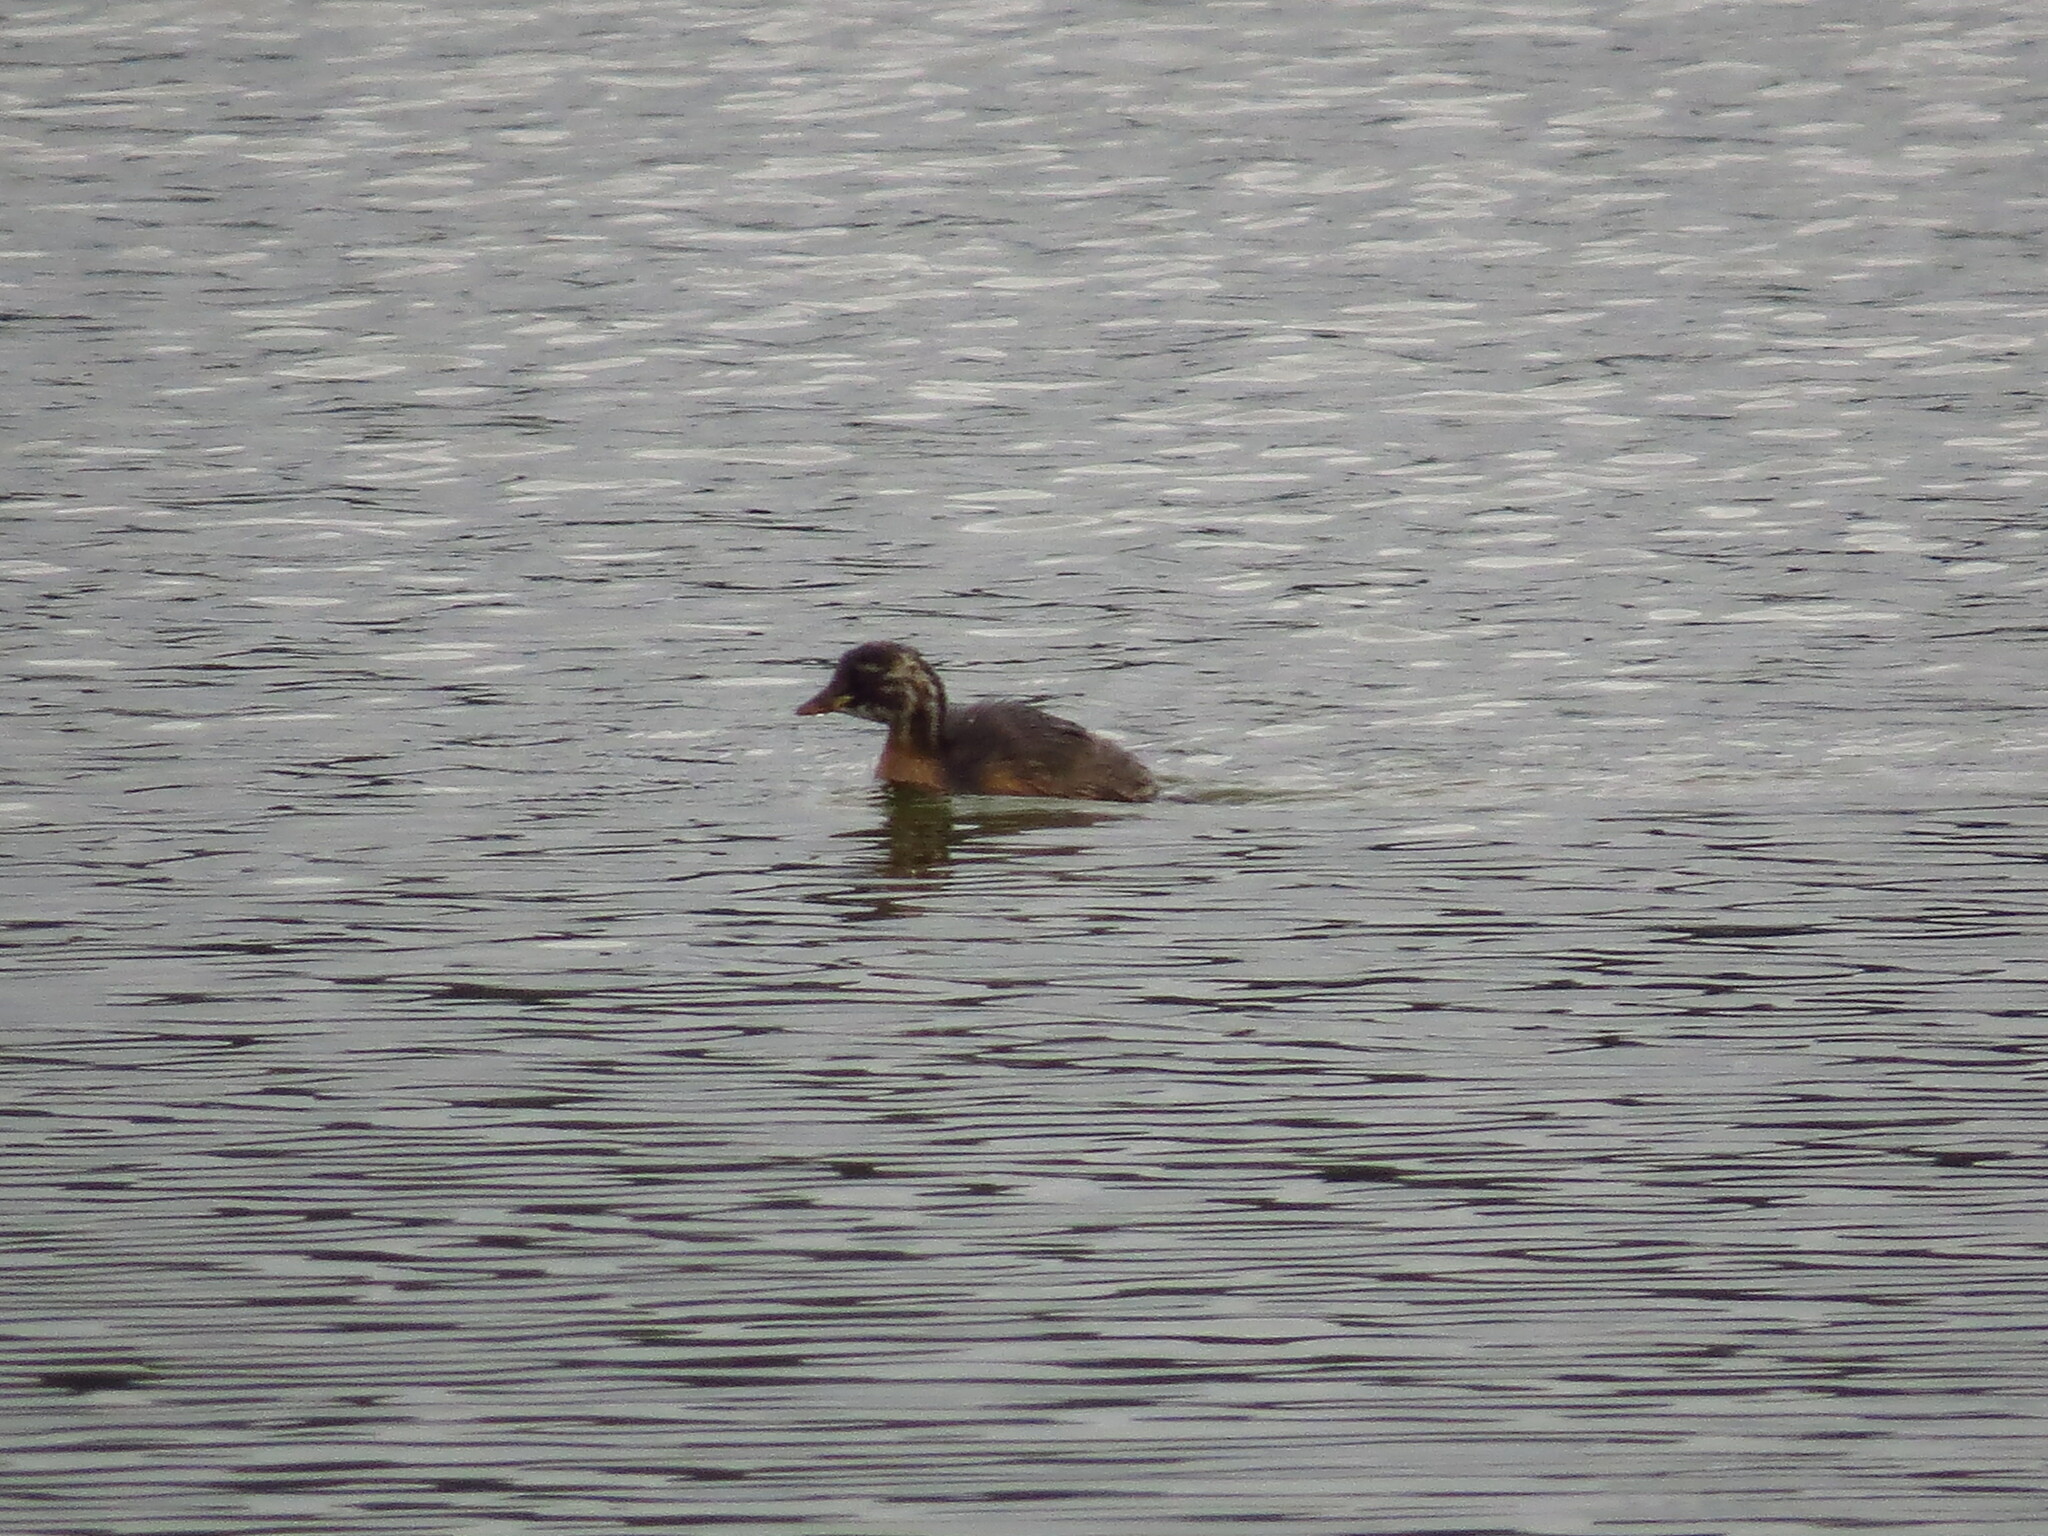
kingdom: Animalia
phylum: Chordata
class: Aves
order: Podicipediformes
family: Podicipedidae
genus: Tachybaptus
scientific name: Tachybaptus ruficollis
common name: Little grebe
